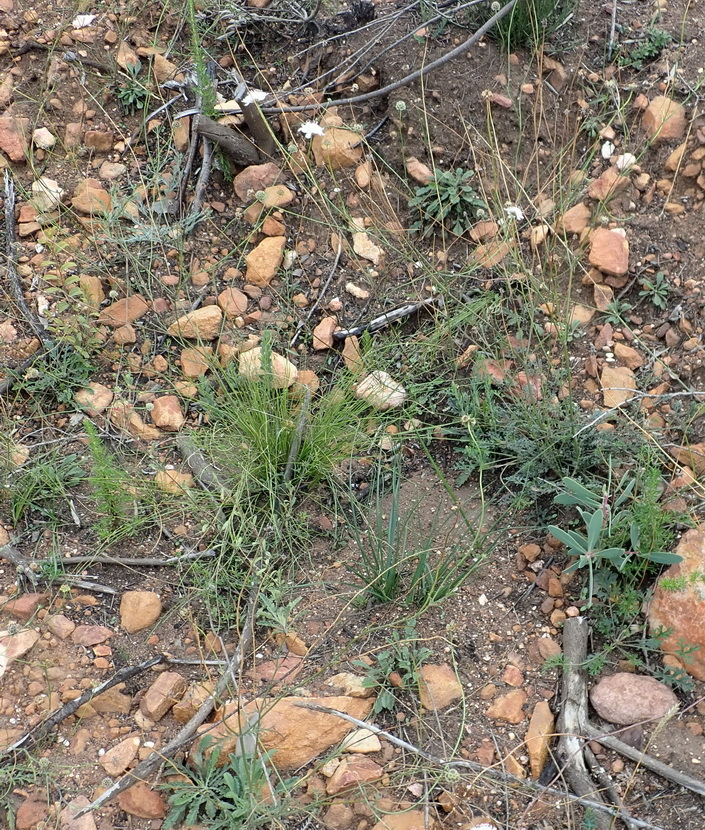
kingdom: Plantae
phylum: Tracheophyta
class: Magnoliopsida
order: Dipsacales
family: Caprifoliaceae
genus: Scabiosa
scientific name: Scabiosa columbaria
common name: Small scabious
